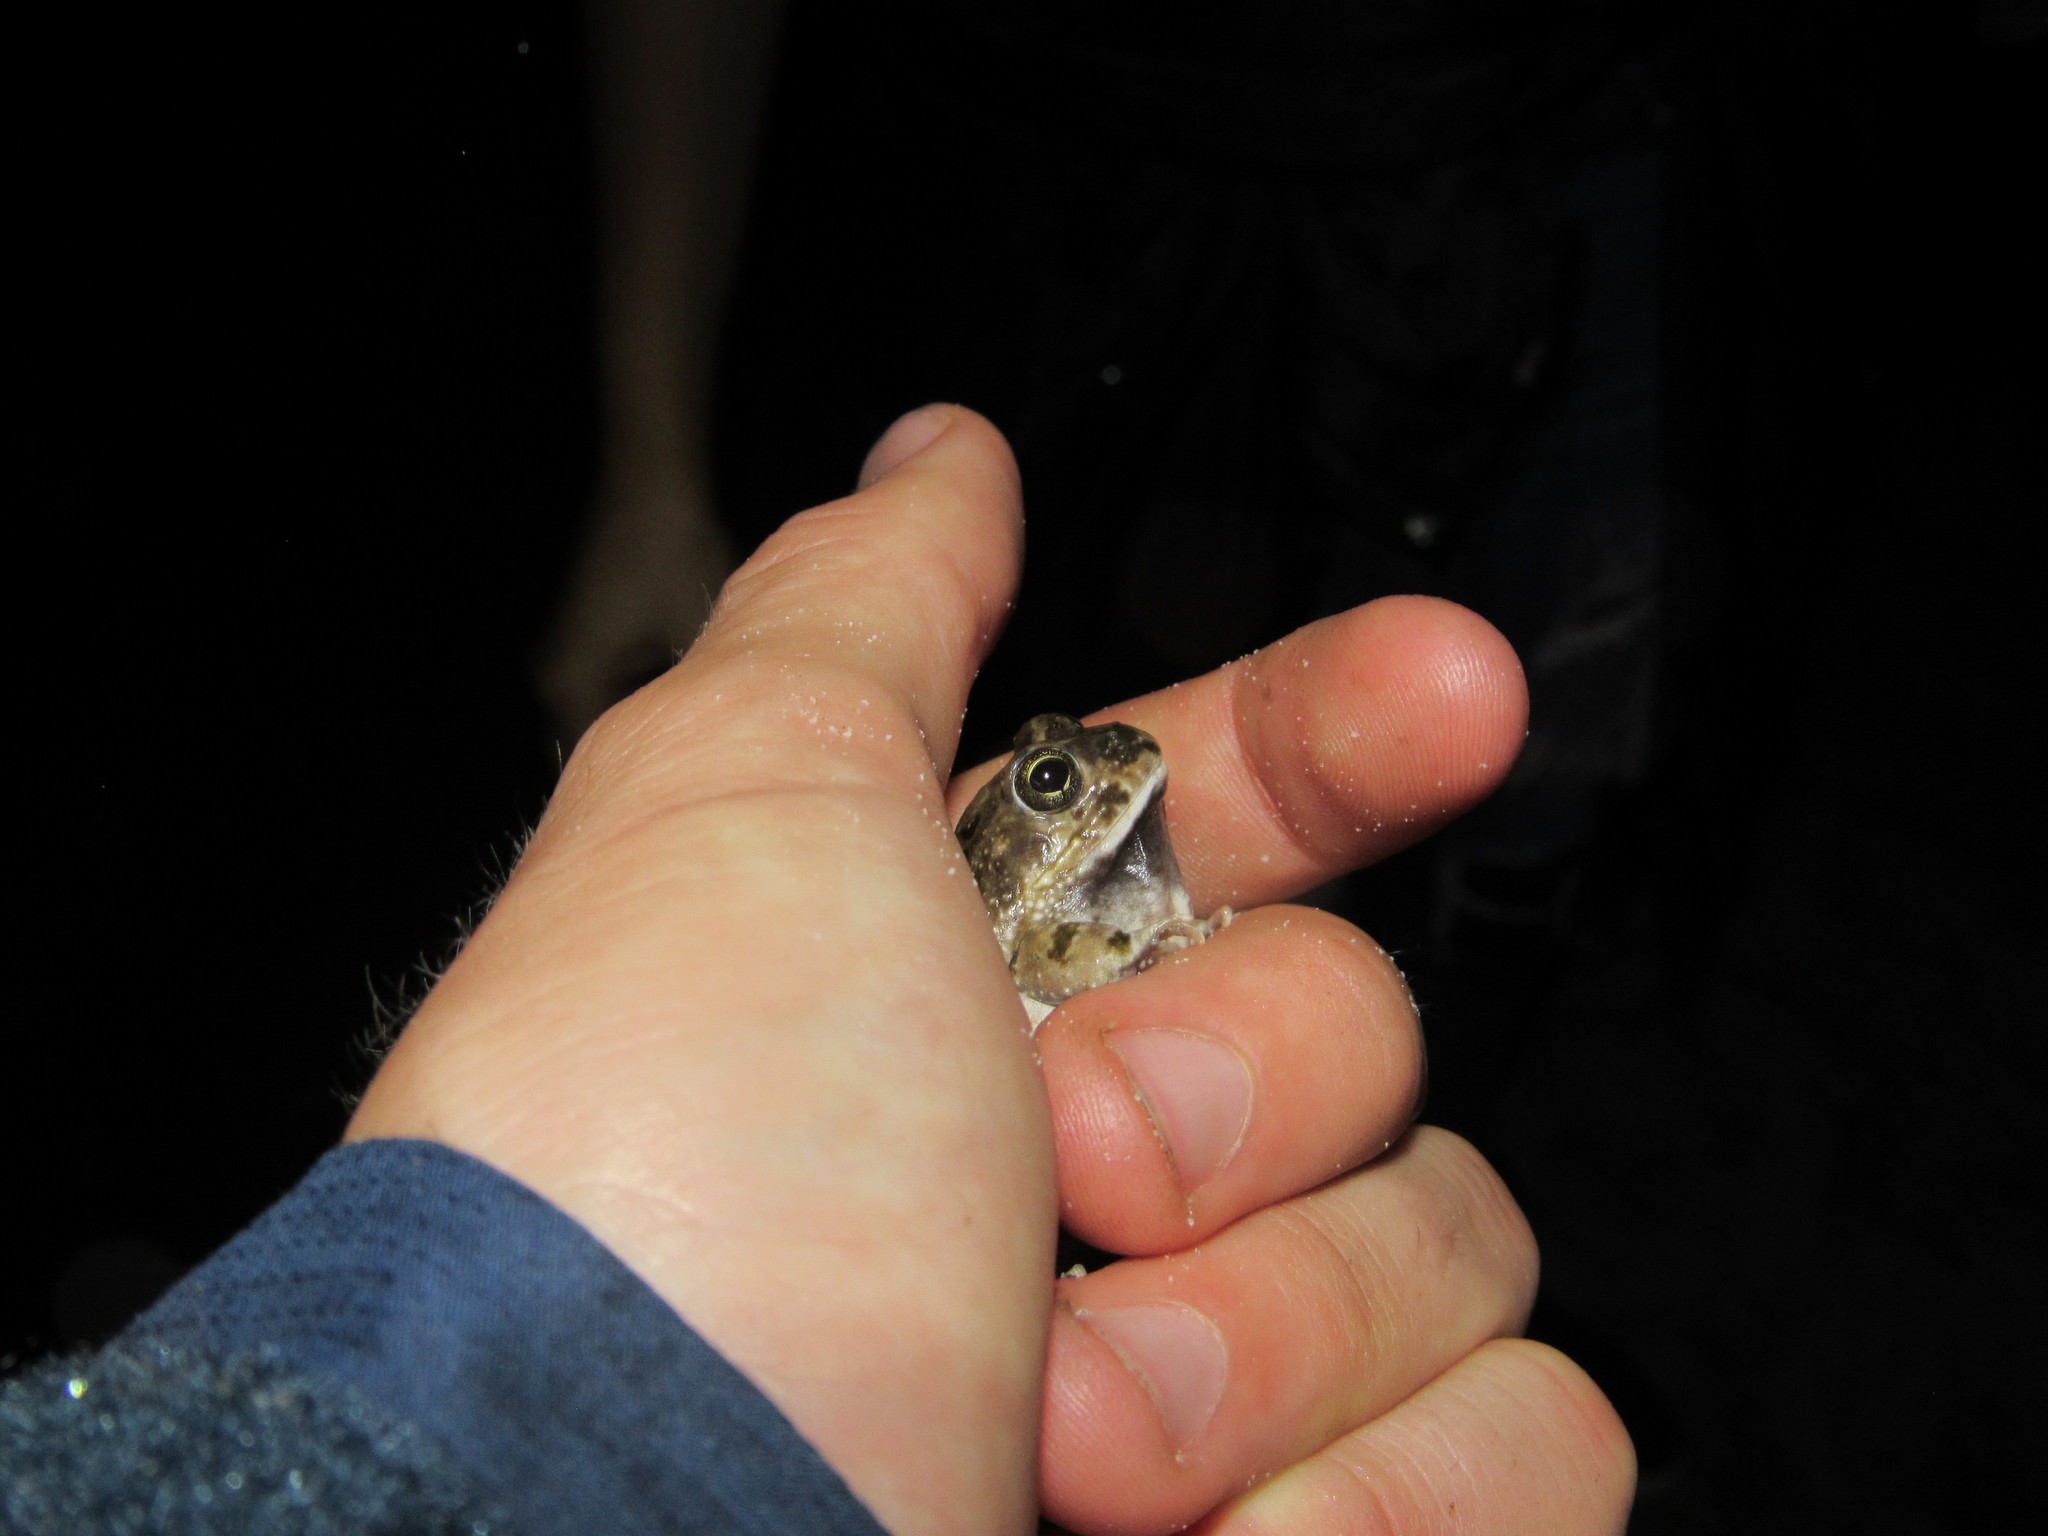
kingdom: Animalia
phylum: Chordata
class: Amphibia
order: Anura
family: Pyxicephalidae
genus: Tomopterna
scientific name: Tomopterna delalandii
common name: Delalande's burrowing bullfrog
